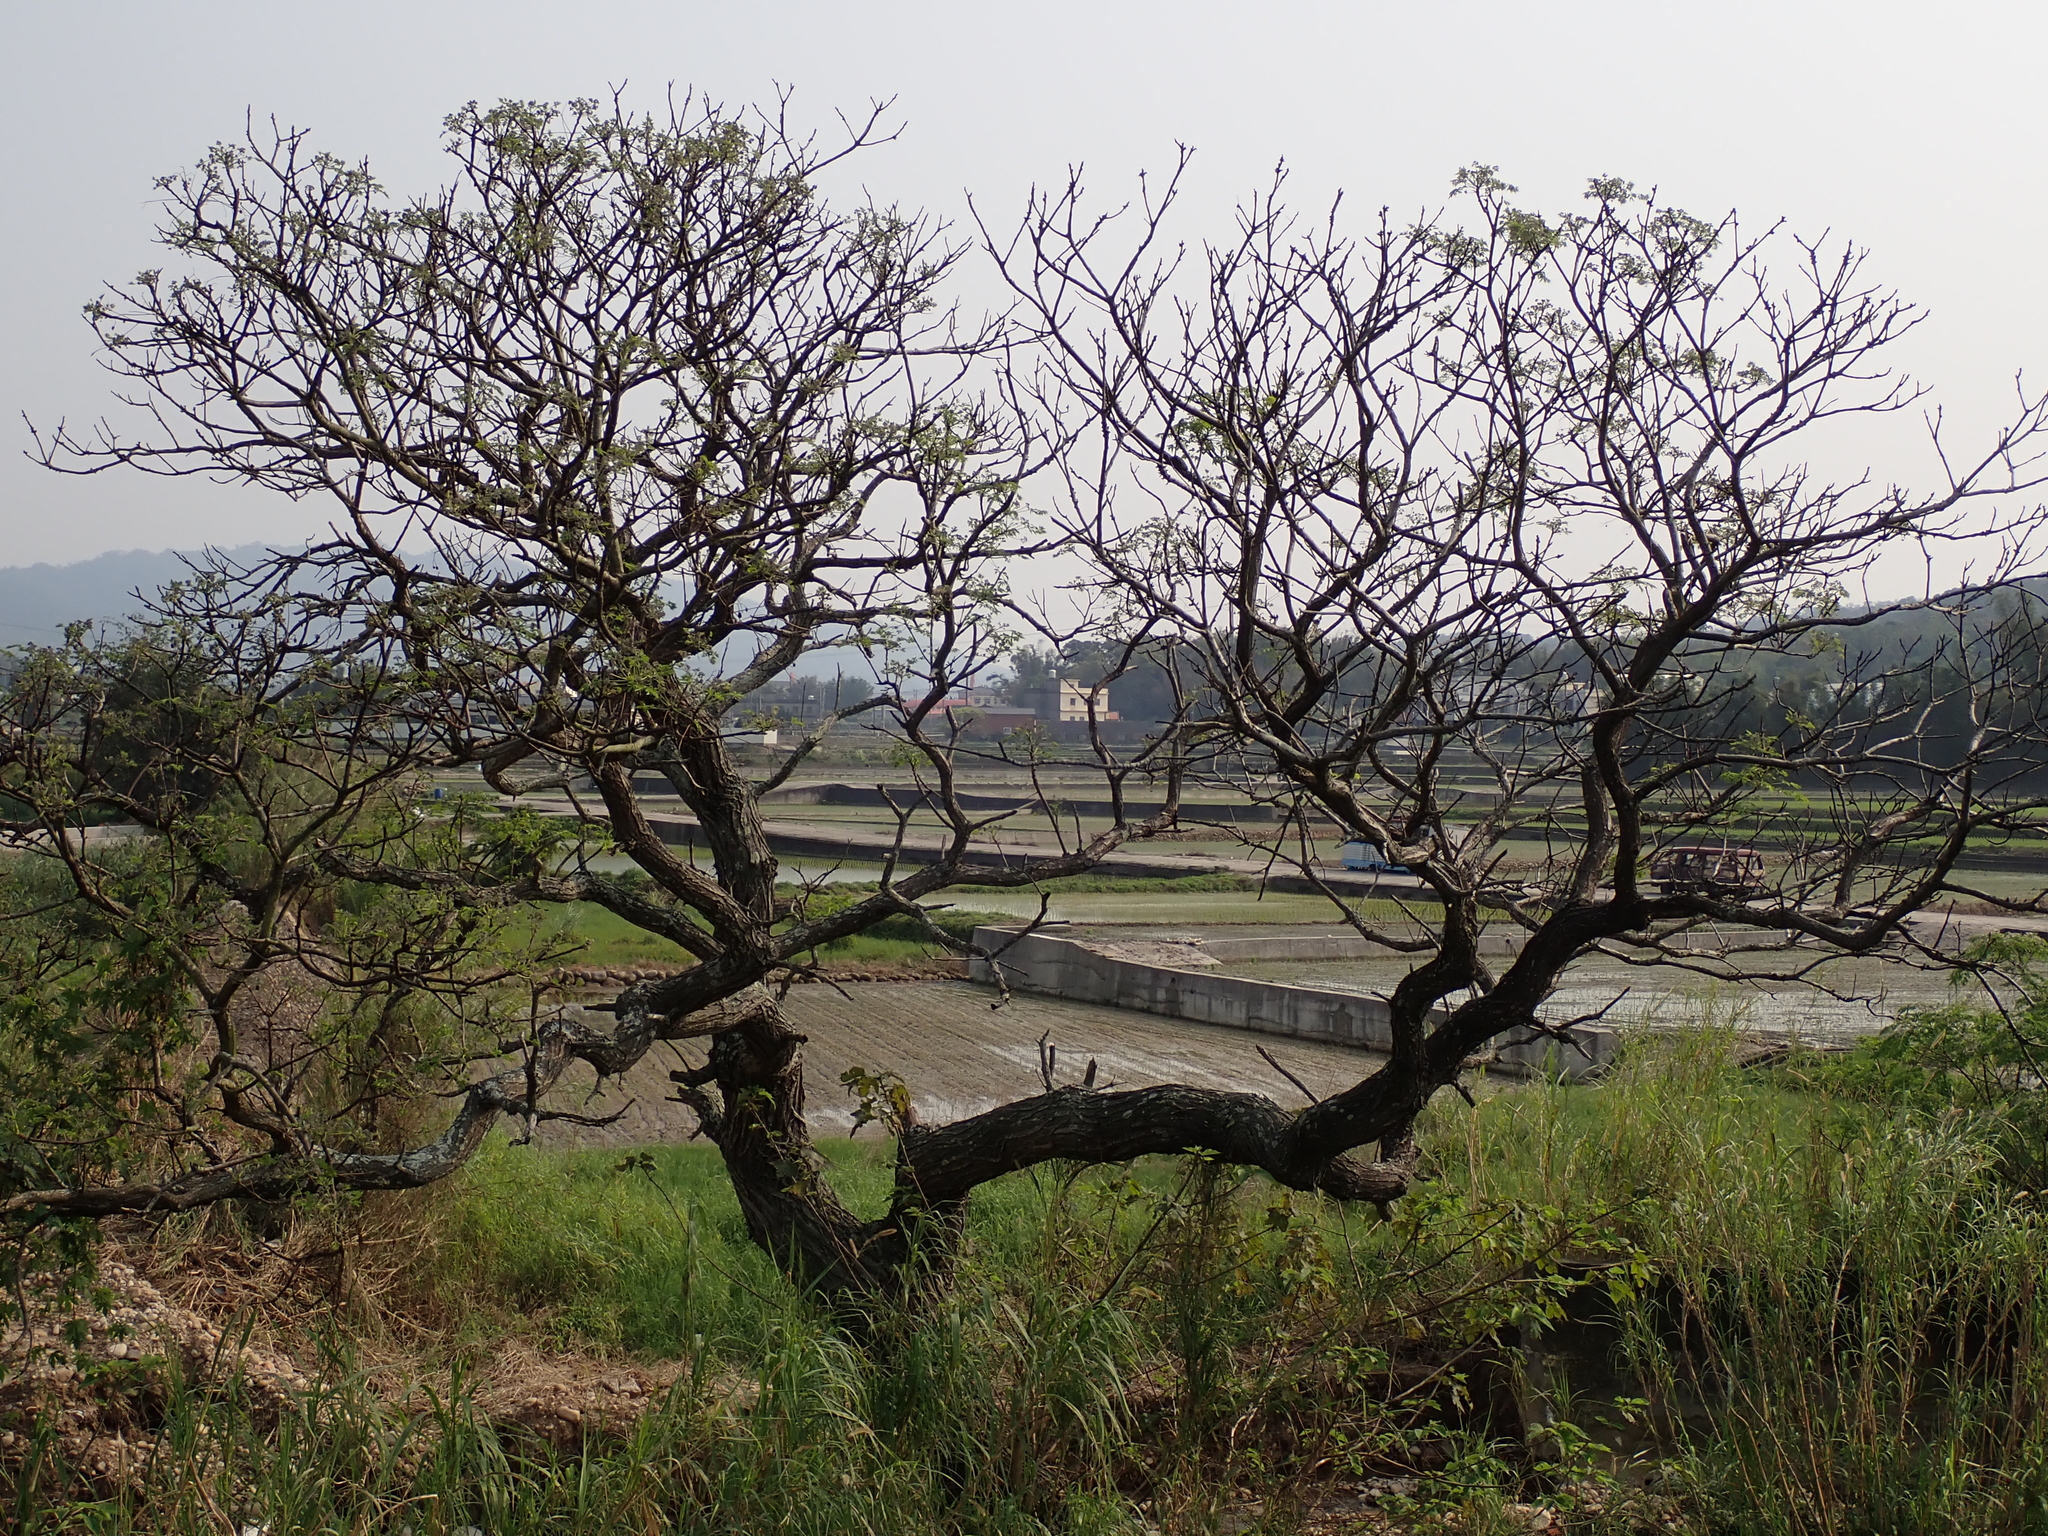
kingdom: Plantae
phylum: Tracheophyta
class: Magnoliopsida
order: Sapindales
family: Meliaceae
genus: Melia
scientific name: Melia azedarach
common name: Chinaberrytree
